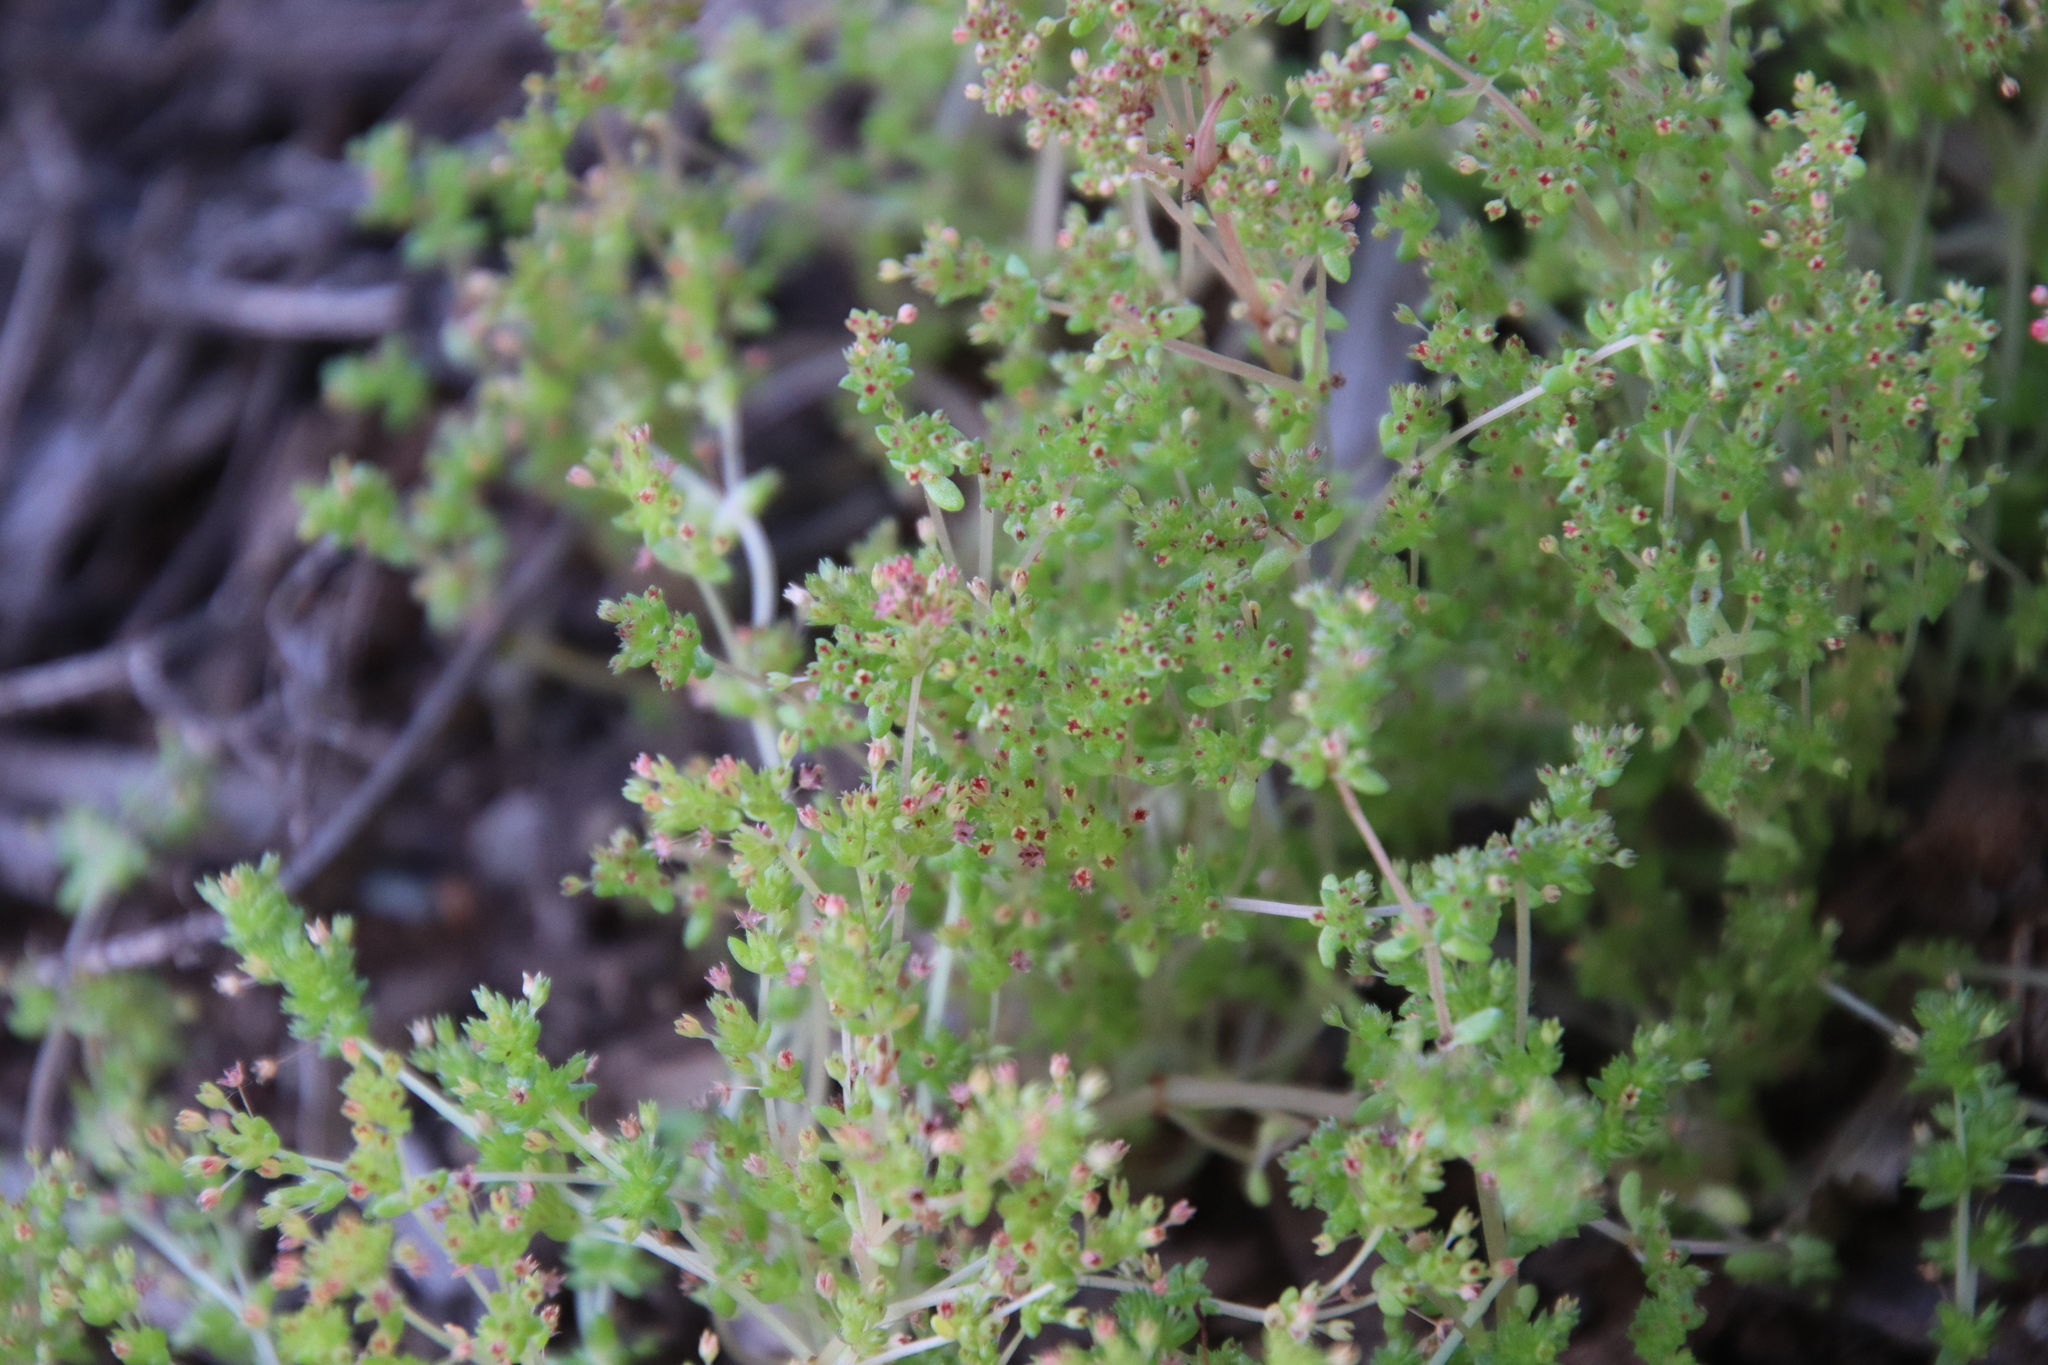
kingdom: Plantae
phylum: Tracheophyta
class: Magnoliopsida
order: Saxifragales
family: Crassulaceae
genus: Crassula
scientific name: Crassula connata
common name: Erect pygmyweed
